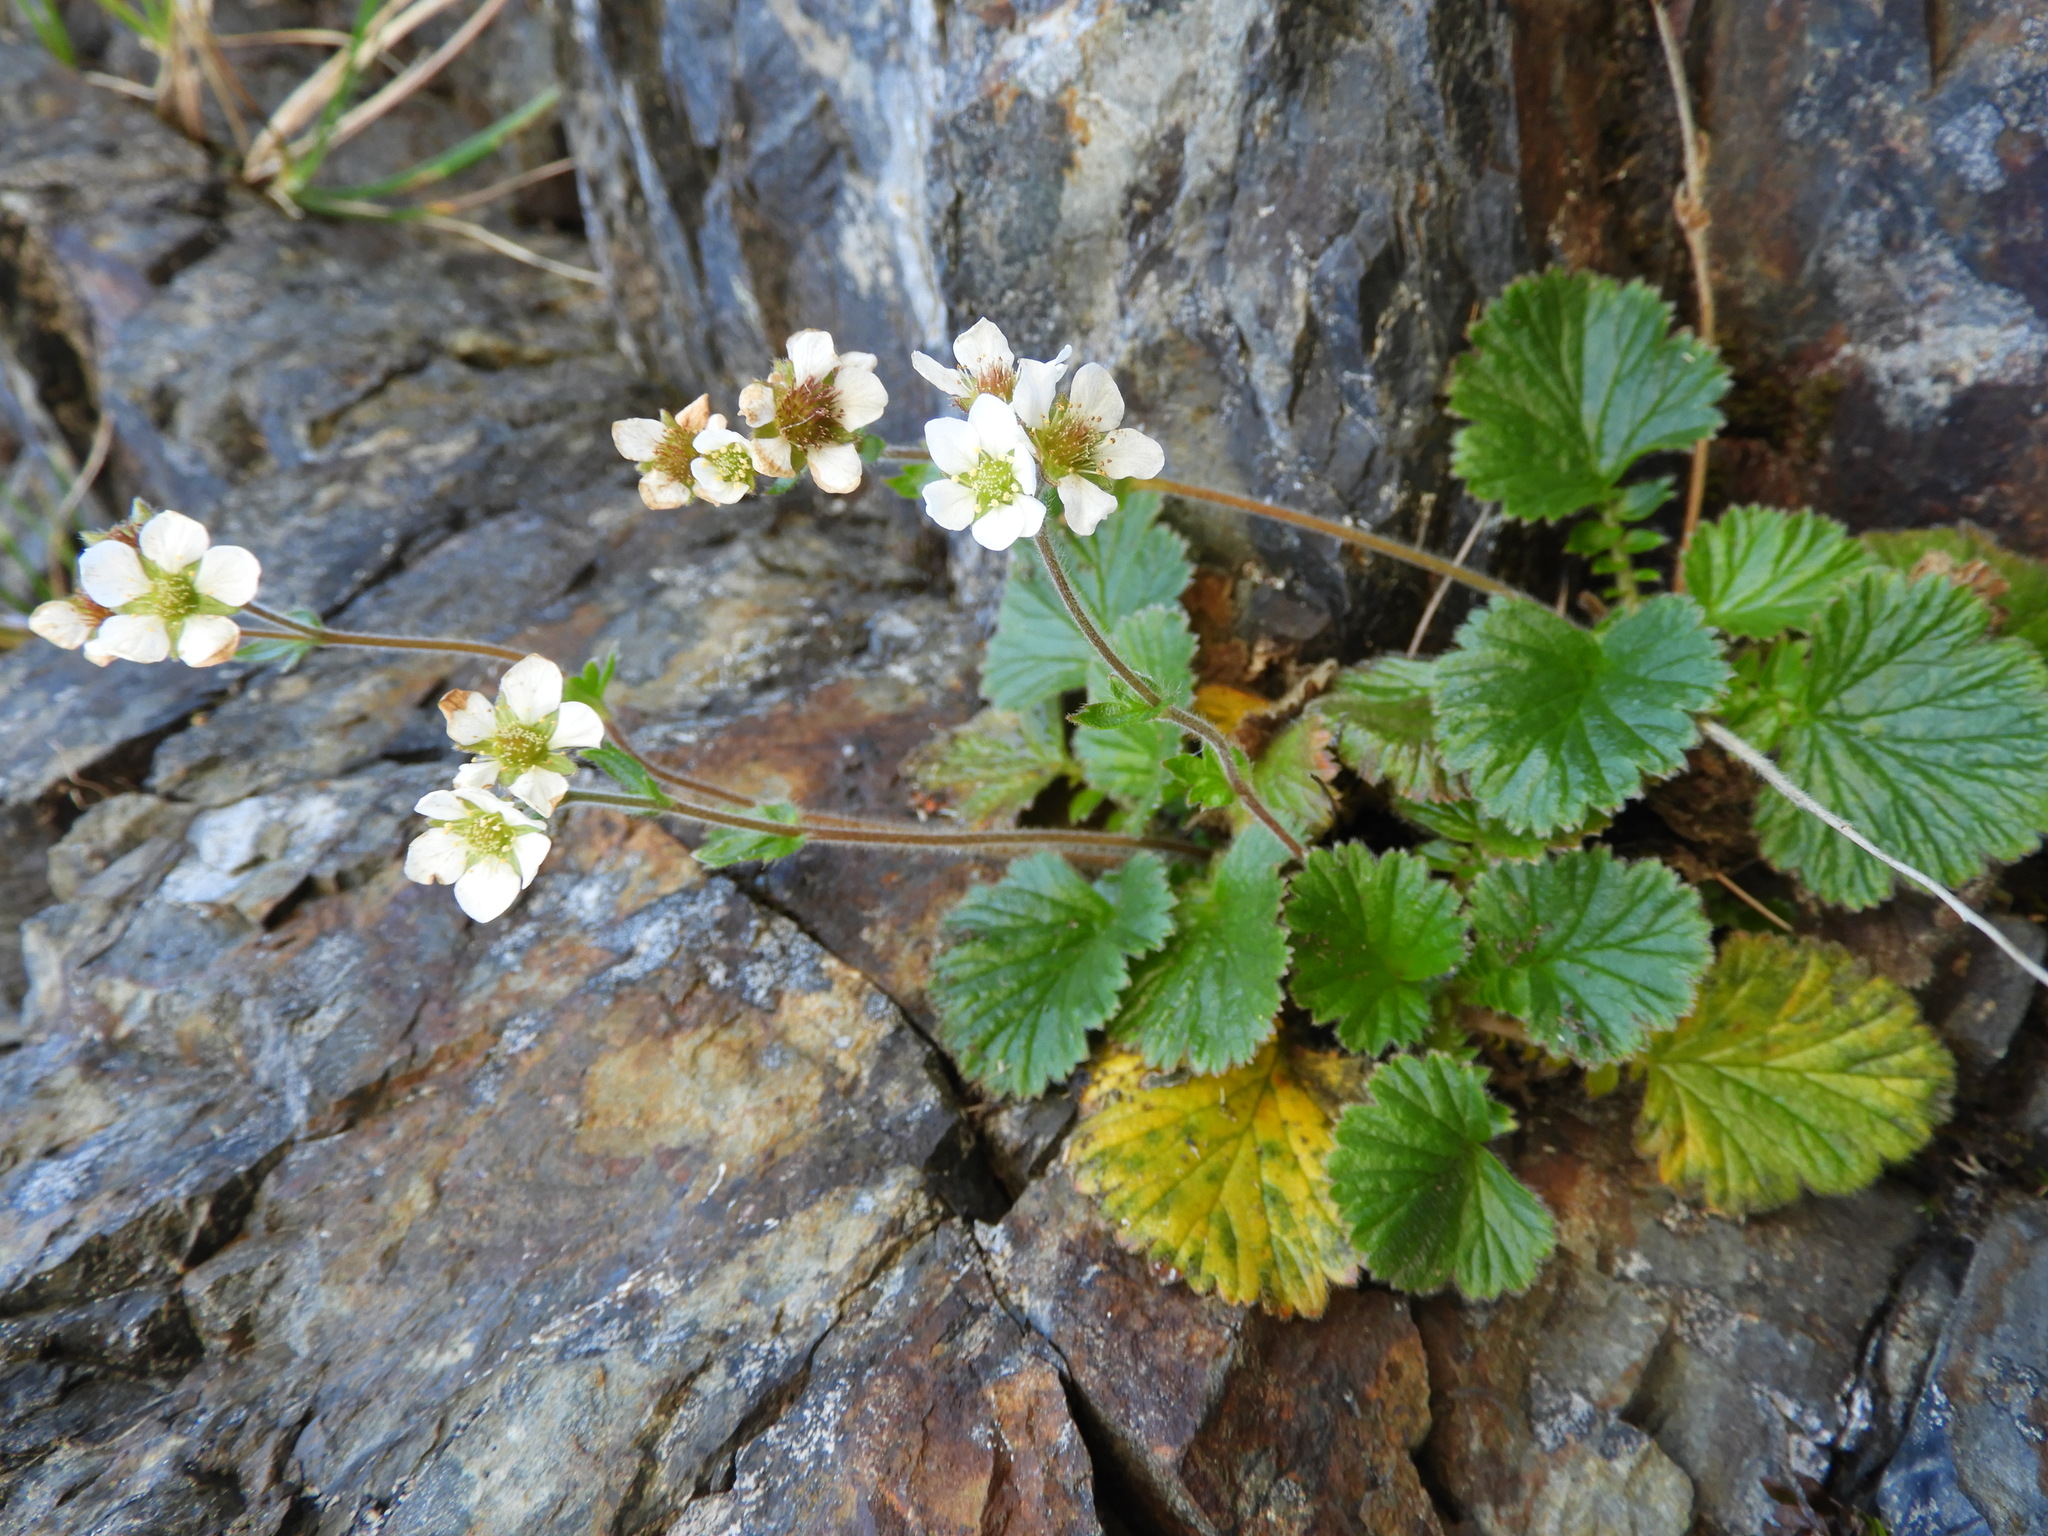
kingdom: Plantae
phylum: Tracheophyta
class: Magnoliopsida
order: Rosales
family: Rosaceae
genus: Geum
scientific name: Geum cockaynei
